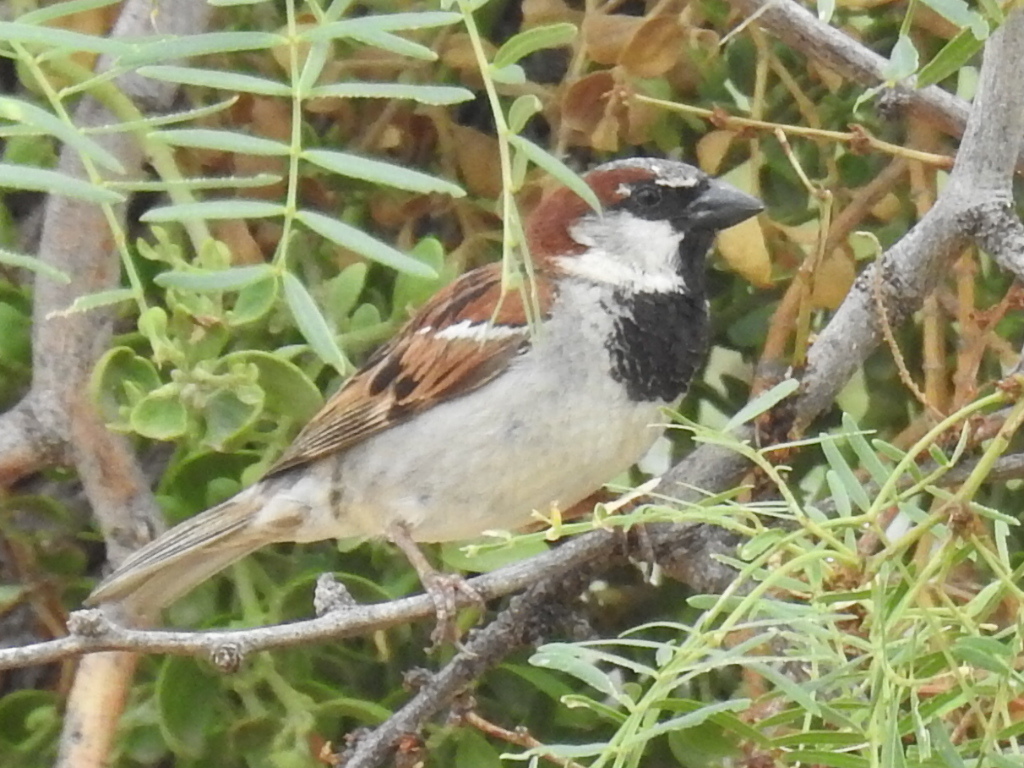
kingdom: Animalia
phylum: Chordata
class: Aves
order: Passeriformes
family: Passeridae
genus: Passer
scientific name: Passer domesticus
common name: House sparrow
